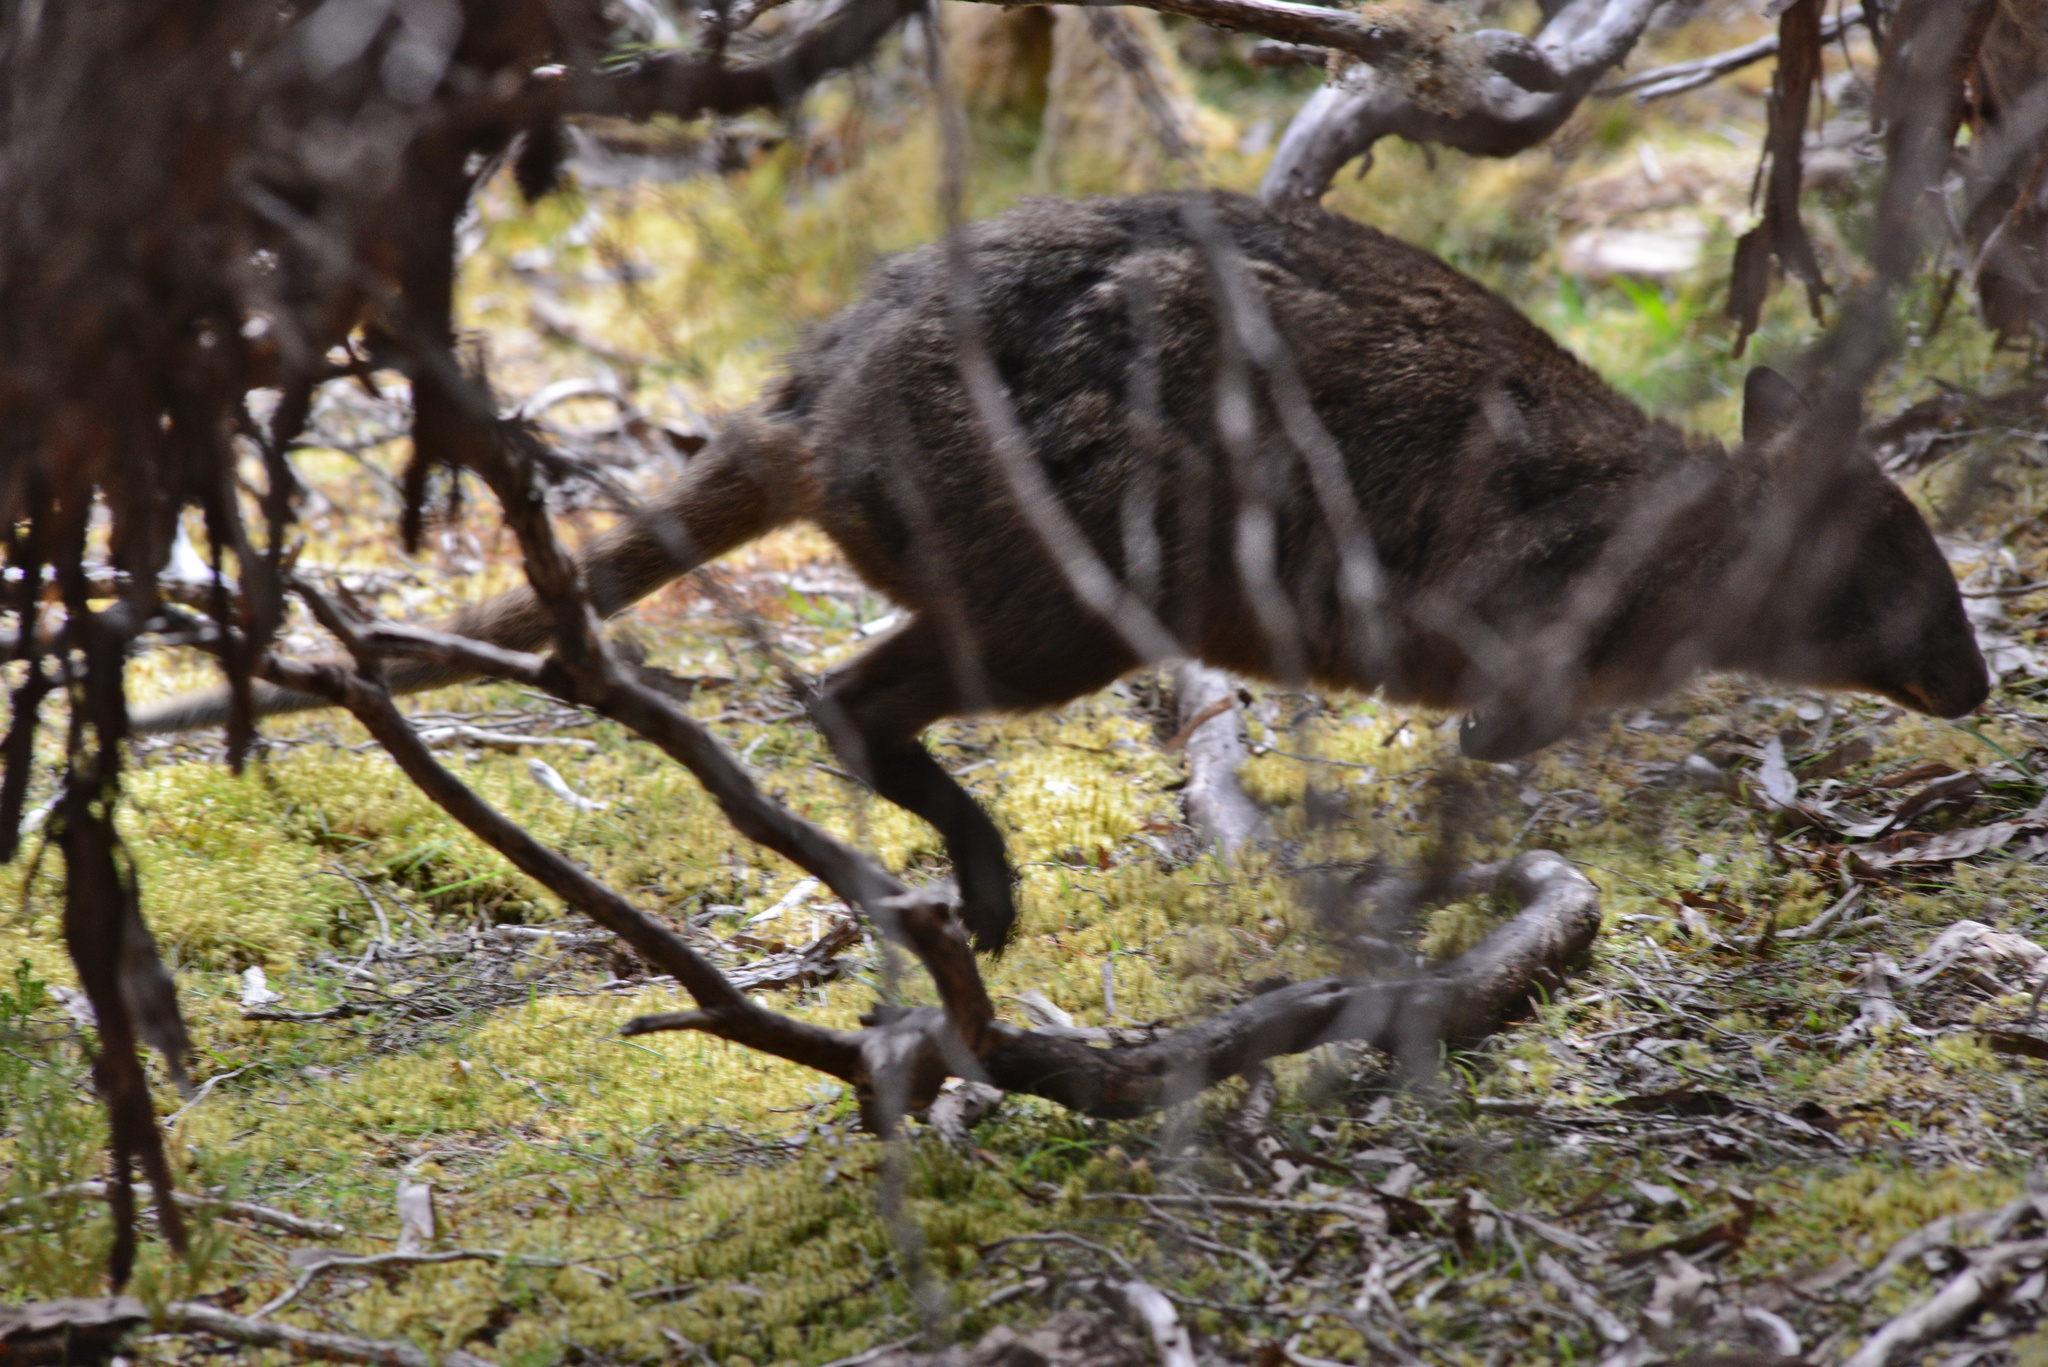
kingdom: Animalia
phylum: Chordata
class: Mammalia
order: Diprotodontia
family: Macropodidae
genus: Thylogale
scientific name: Thylogale billardierii
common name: Tasmanian pademelon
